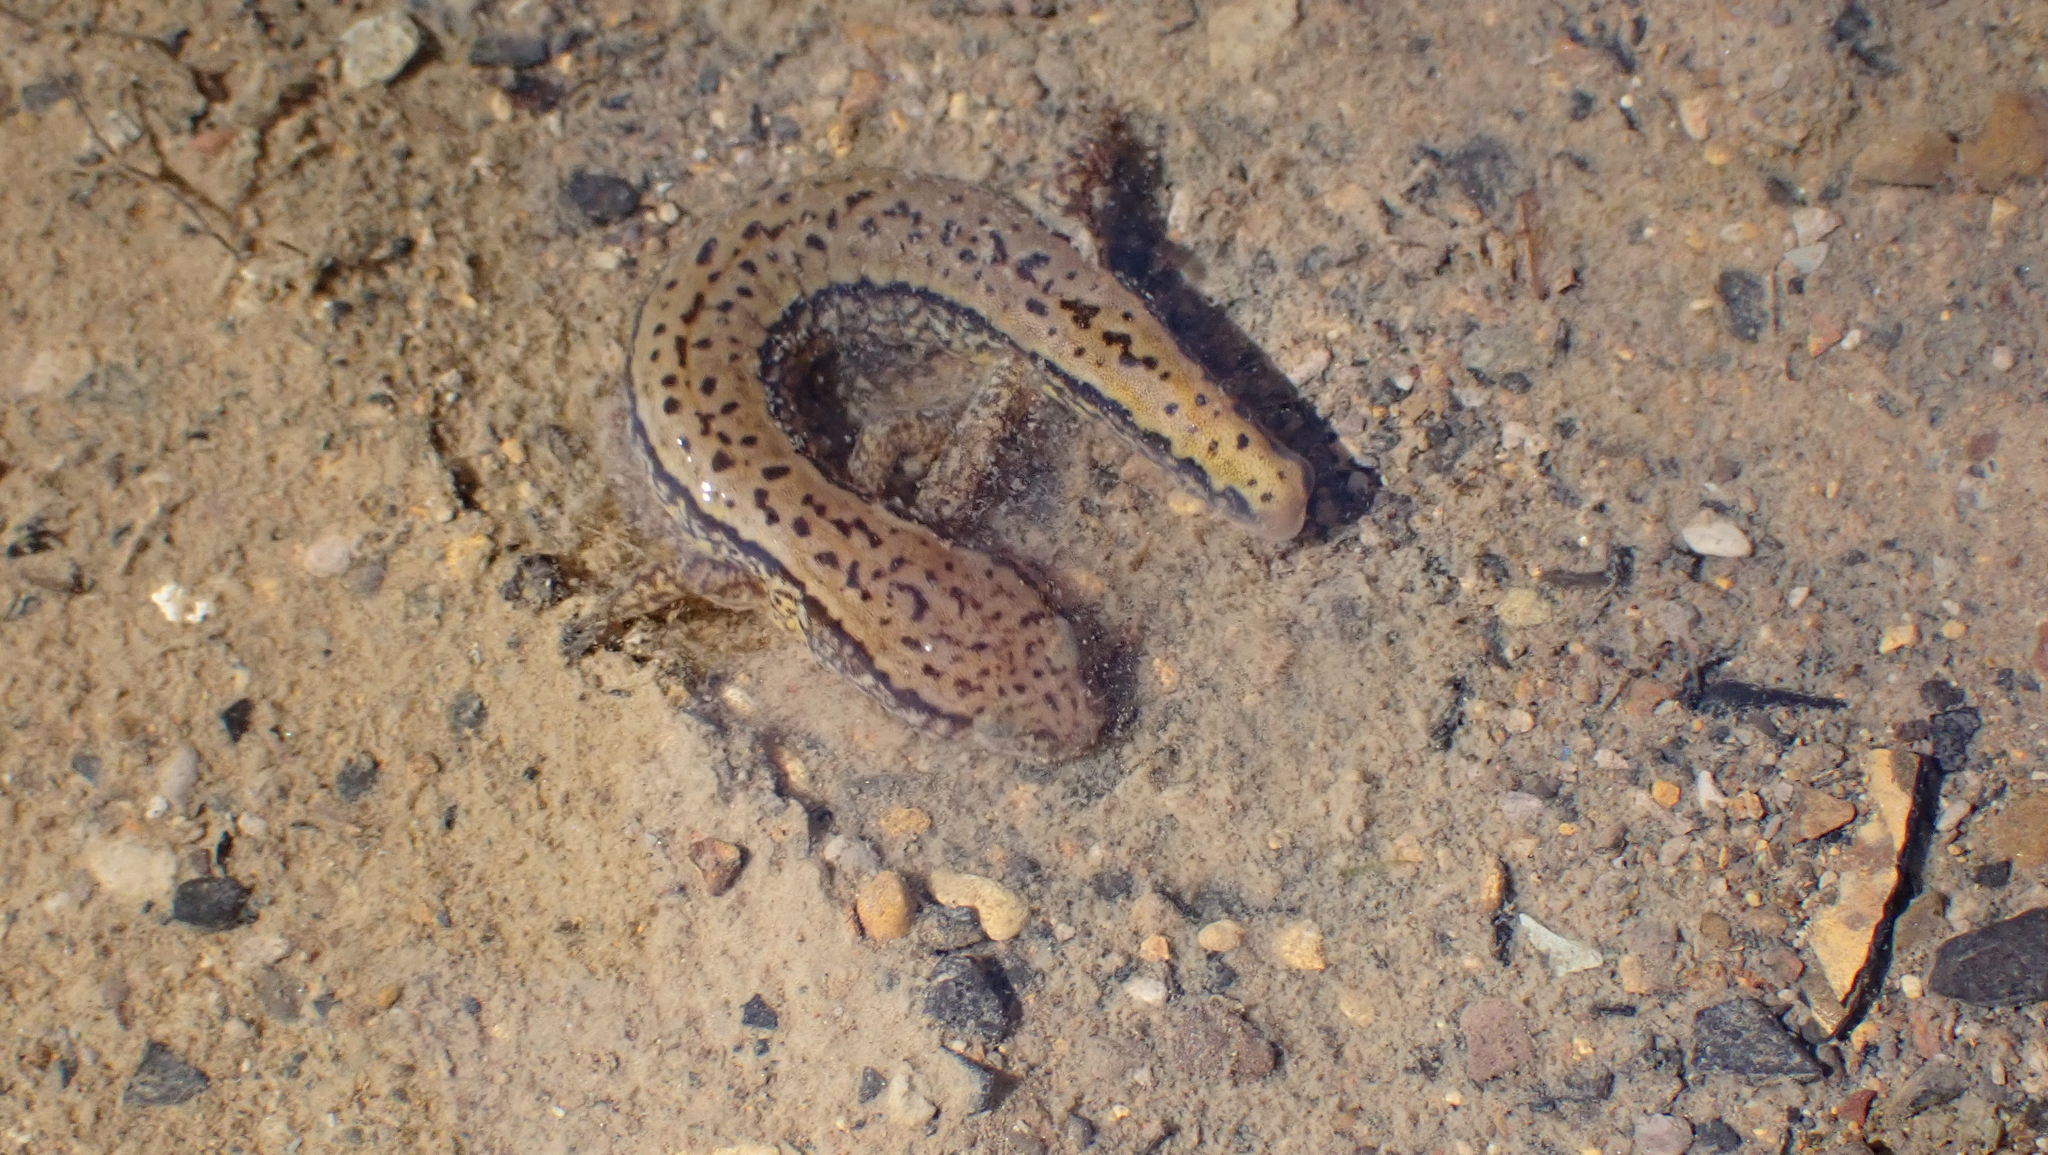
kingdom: Animalia
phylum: Chordata
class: Amphibia
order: Caudata
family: Plethodontidae
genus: Eurycea
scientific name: Eurycea cirrigera
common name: Southern two-lined salamander
